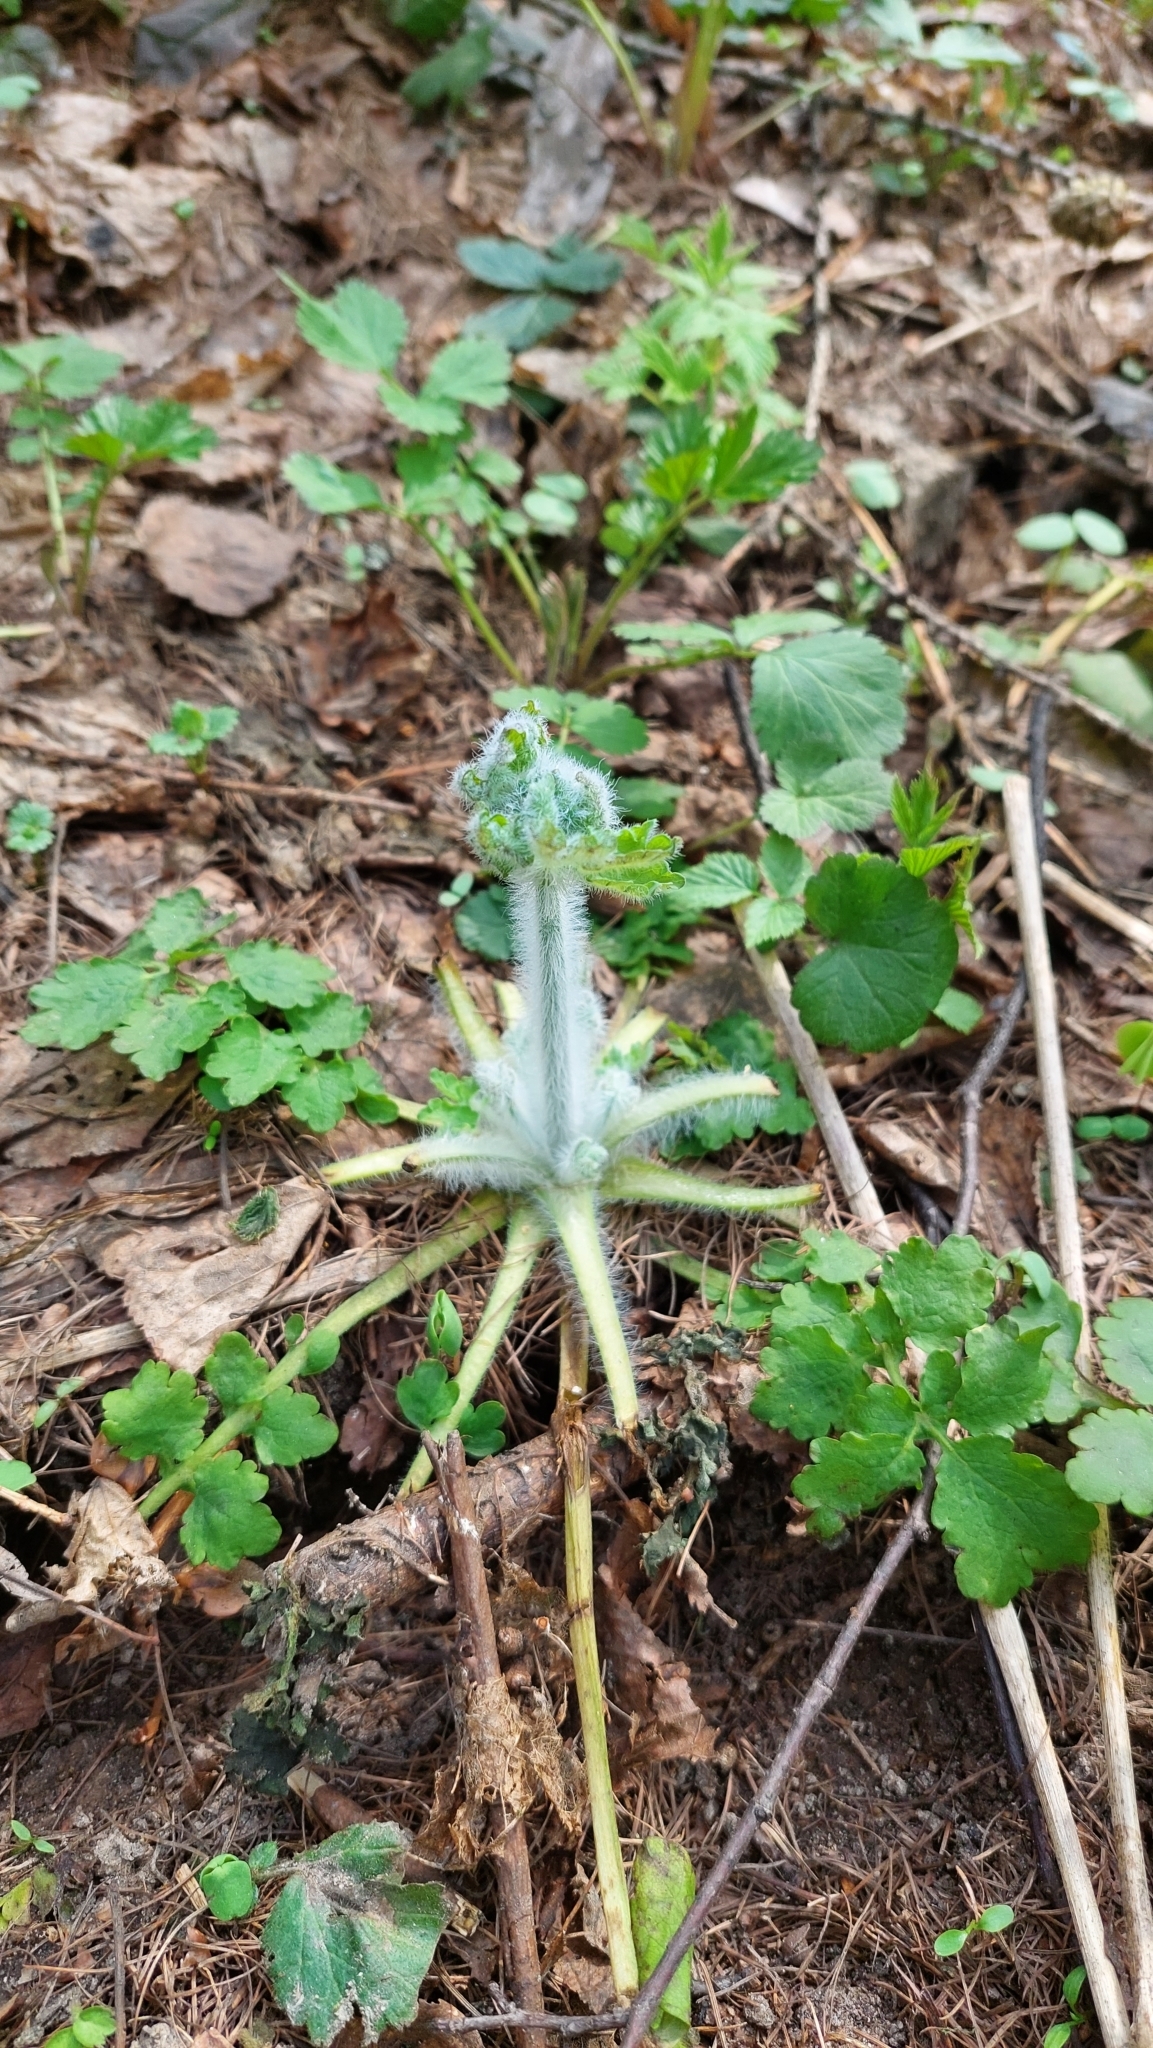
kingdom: Plantae
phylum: Tracheophyta
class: Magnoliopsida
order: Ranunculales
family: Papaveraceae
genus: Chelidonium
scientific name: Chelidonium majus
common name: Greater celandine
